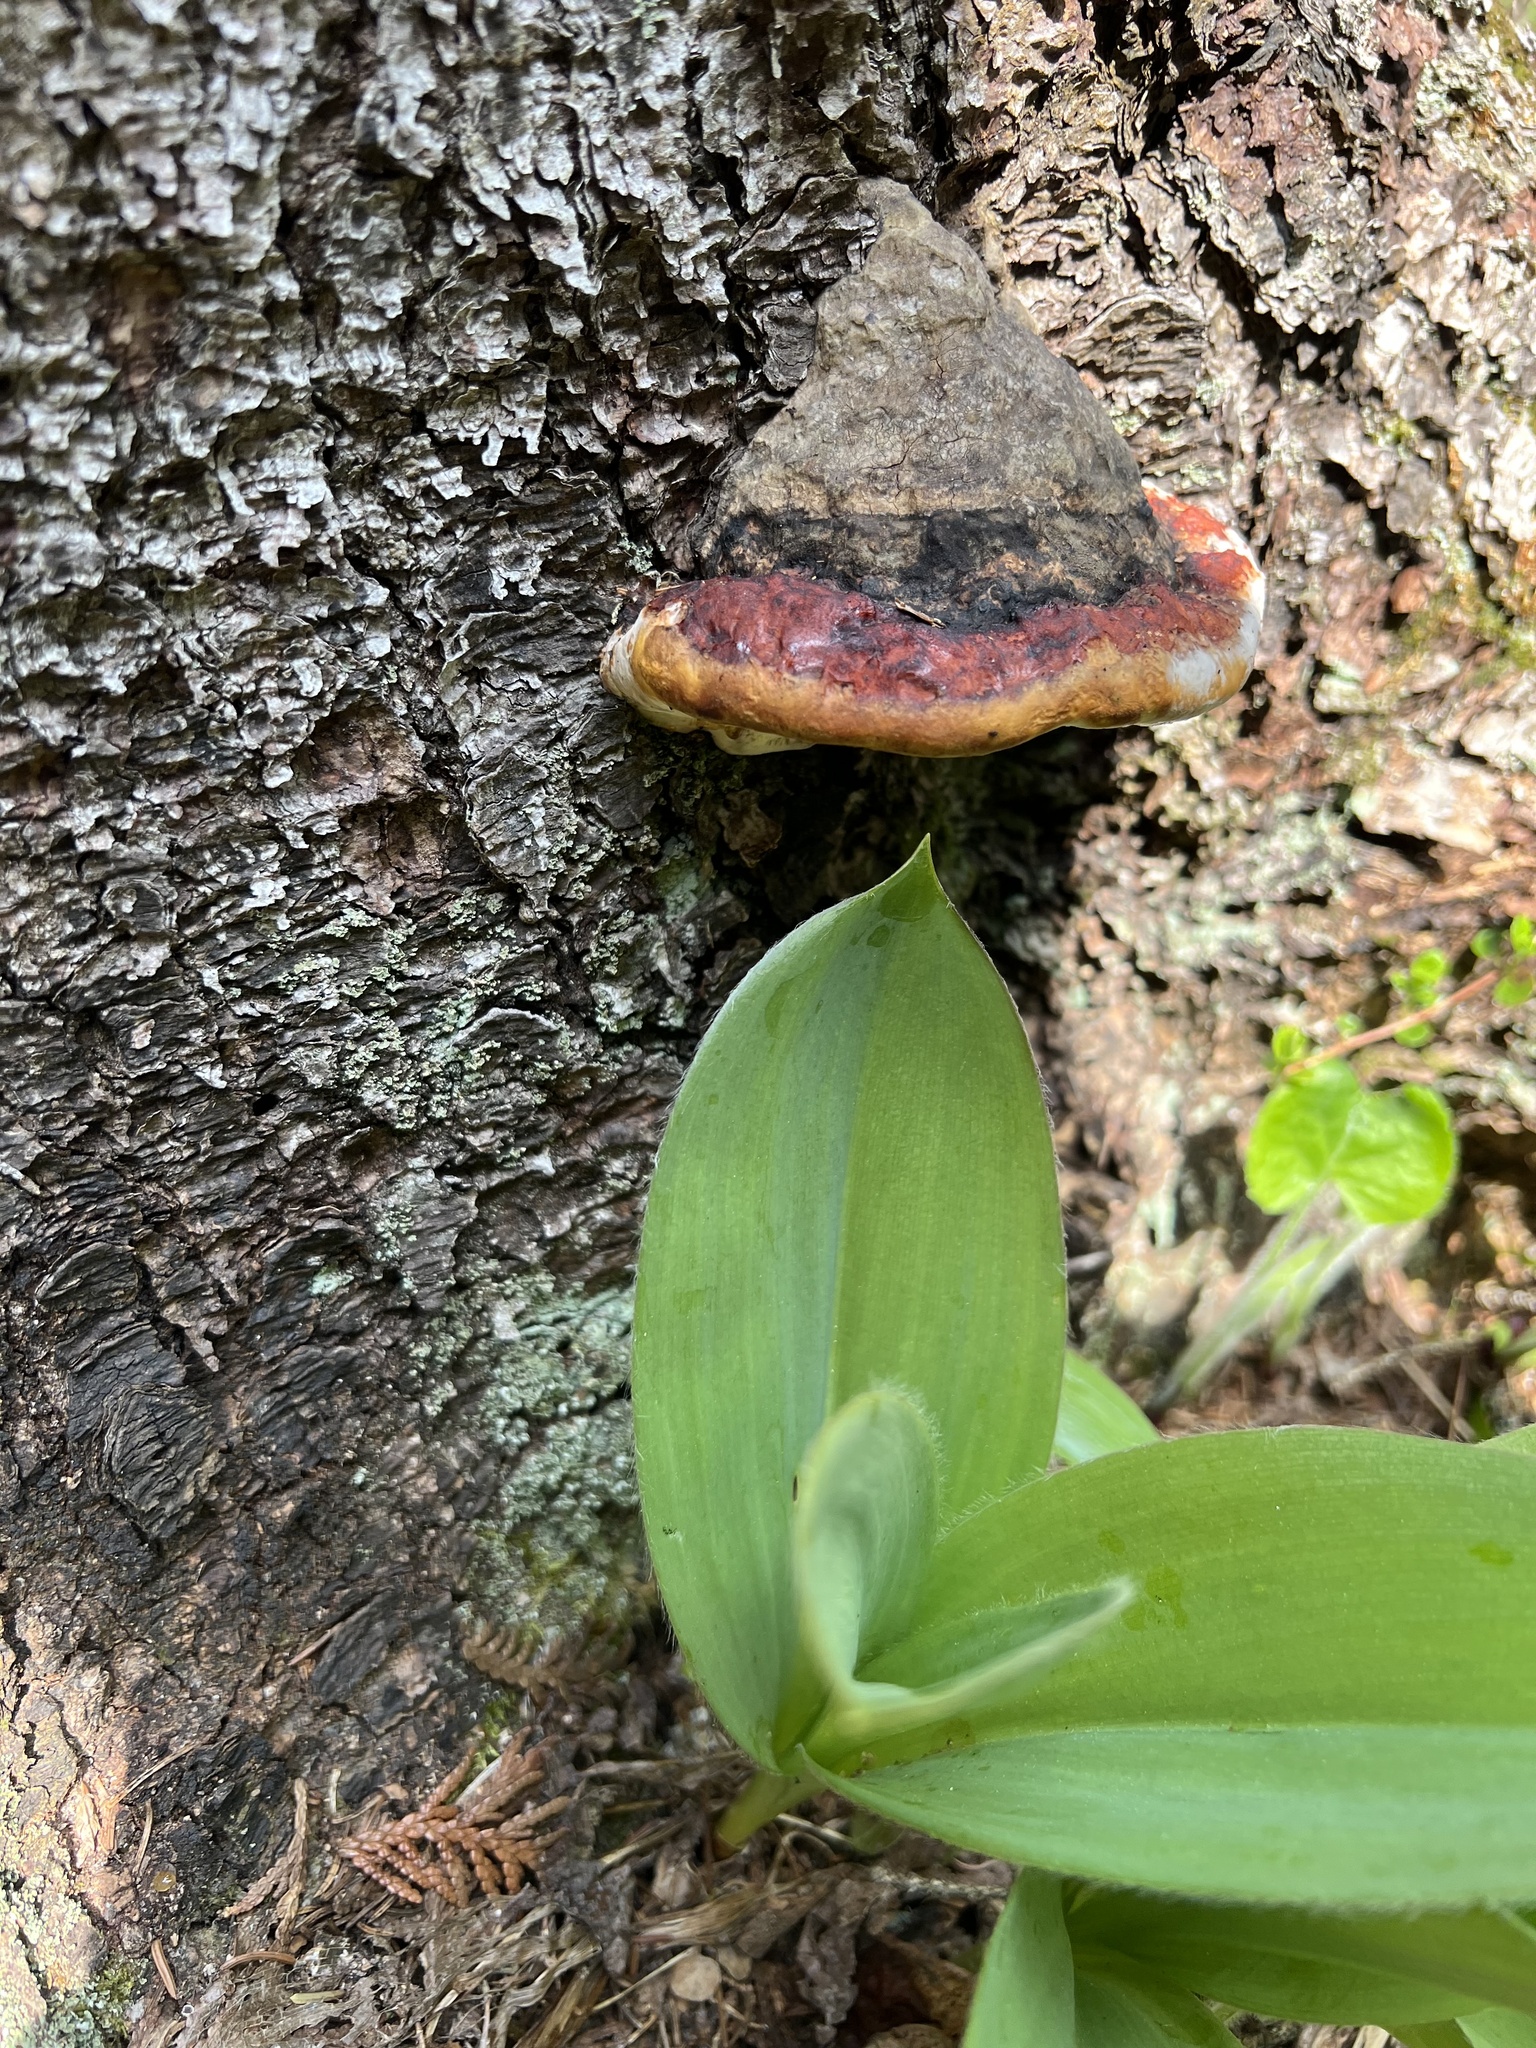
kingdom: Fungi
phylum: Basidiomycota
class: Agaricomycetes
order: Polyporales
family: Fomitopsidaceae
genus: Fomitopsis
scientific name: Fomitopsis mounceae
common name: Northern red belt
